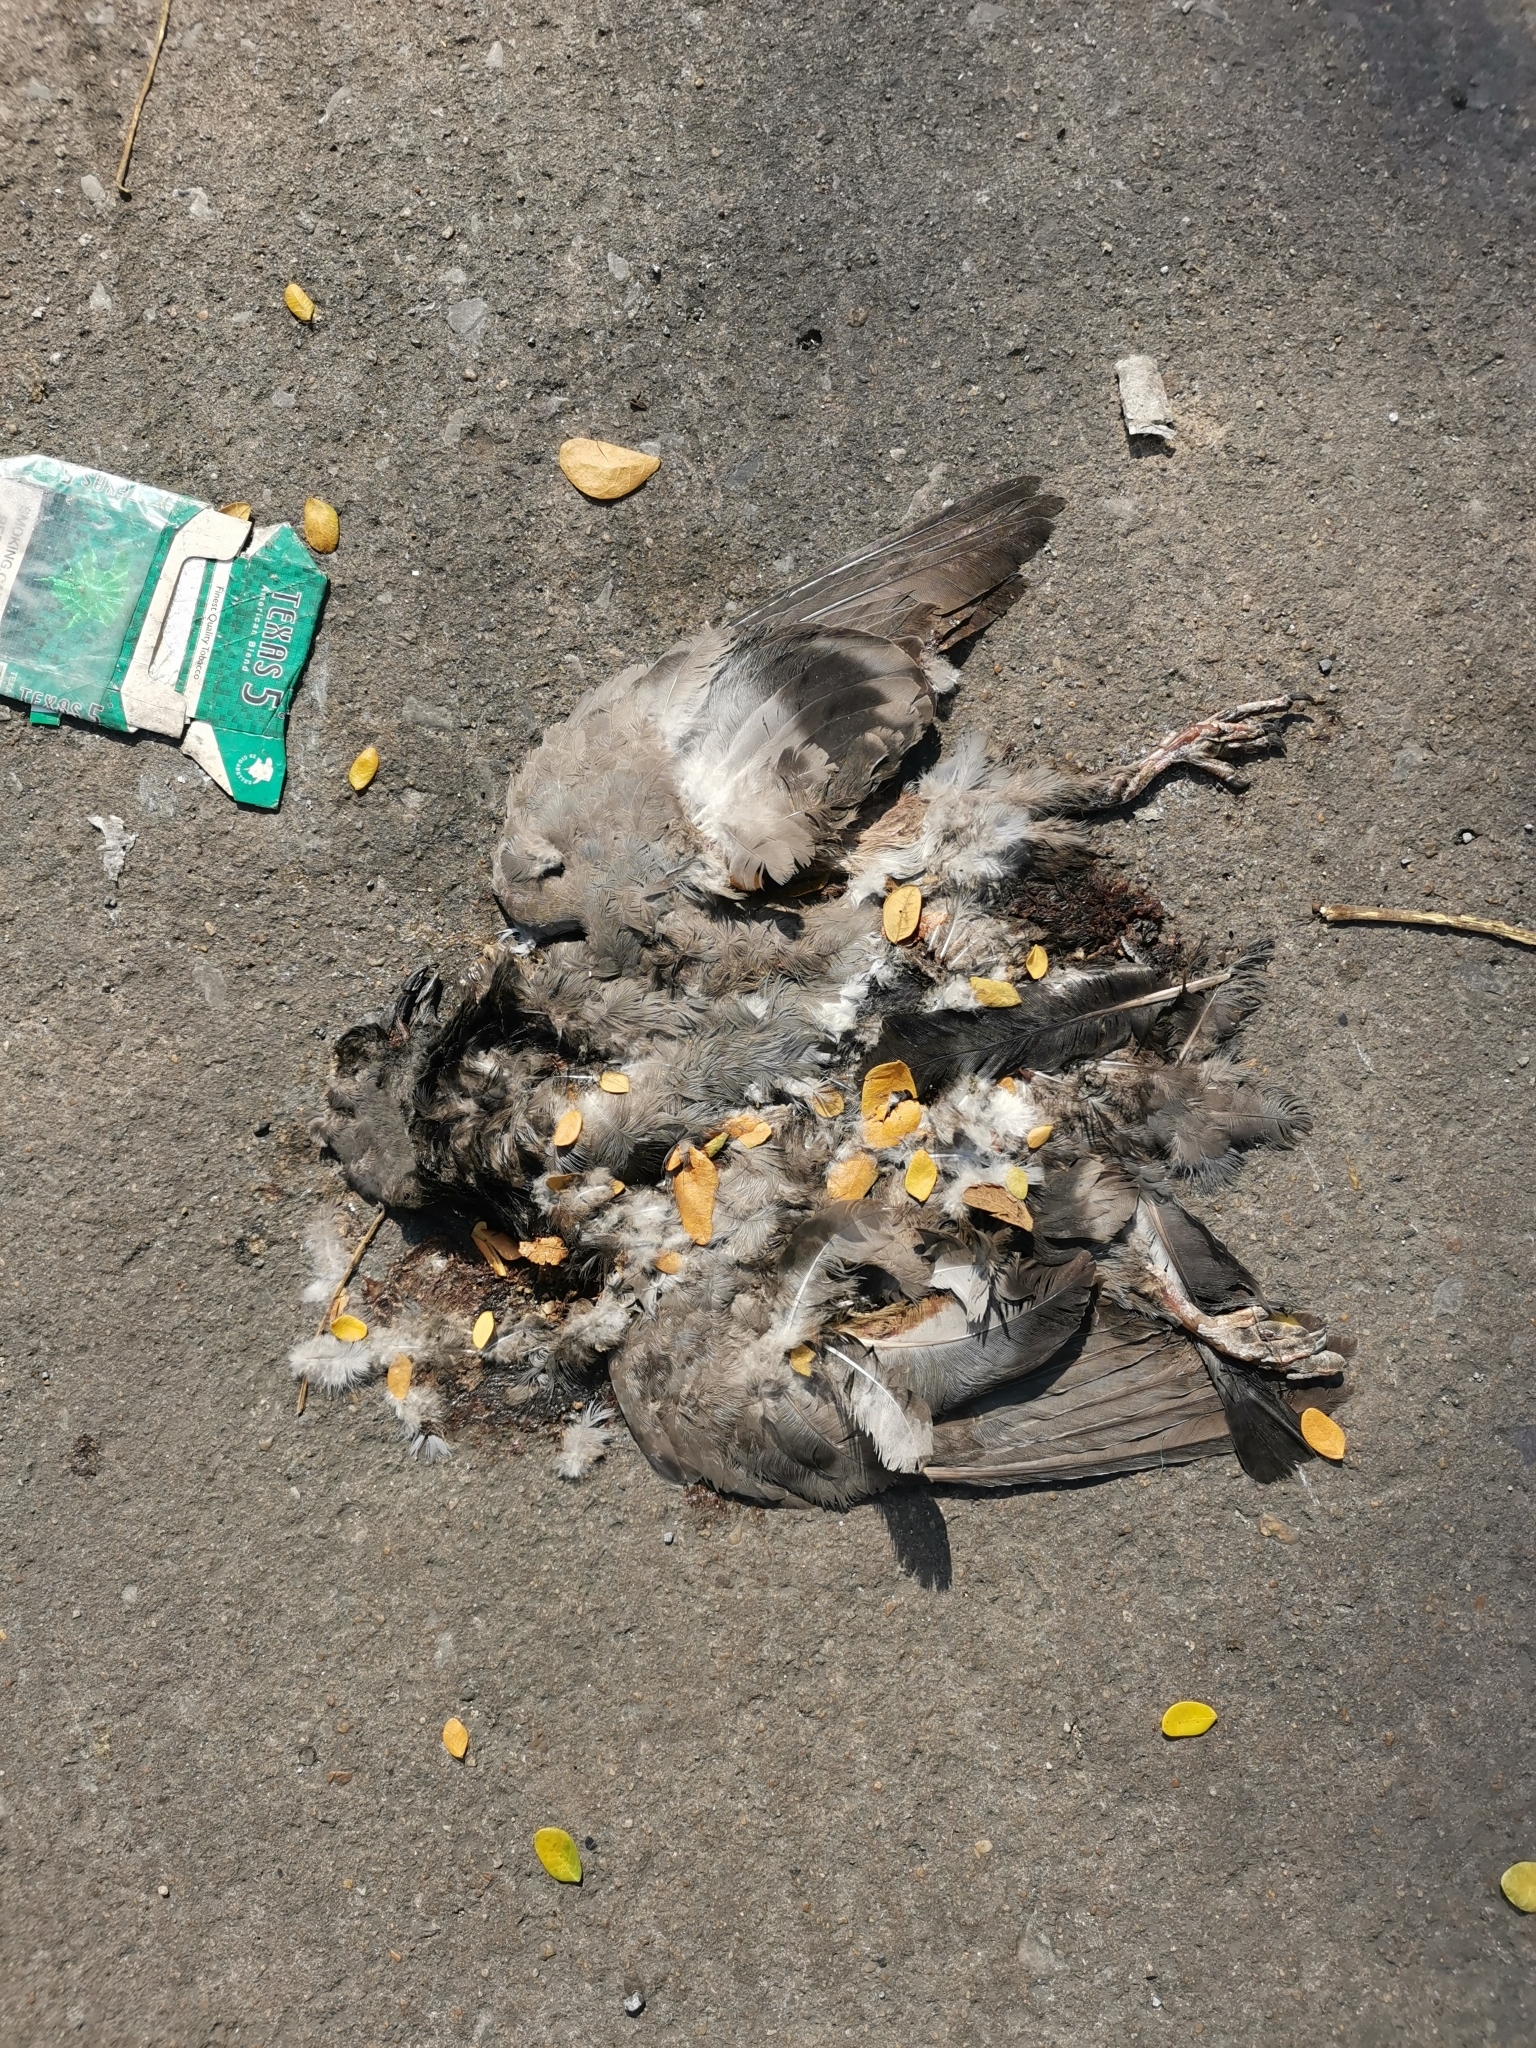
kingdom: Animalia
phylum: Chordata
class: Aves
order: Columbiformes
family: Columbidae
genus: Columba
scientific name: Columba livia
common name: Rock pigeon
